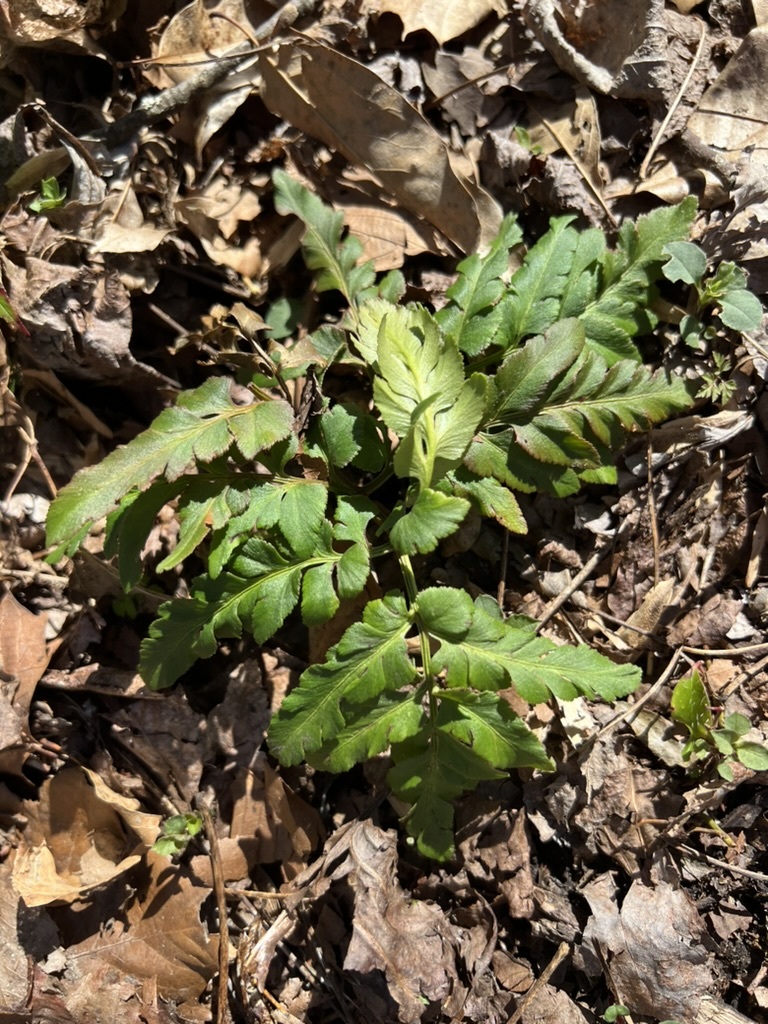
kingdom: Plantae
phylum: Tracheophyta
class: Polypodiopsida
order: Ophioglossales
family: Ophioglossaceae
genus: Sceptridium
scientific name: Sceptridium dissectum
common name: Cut-leaved grapefern
